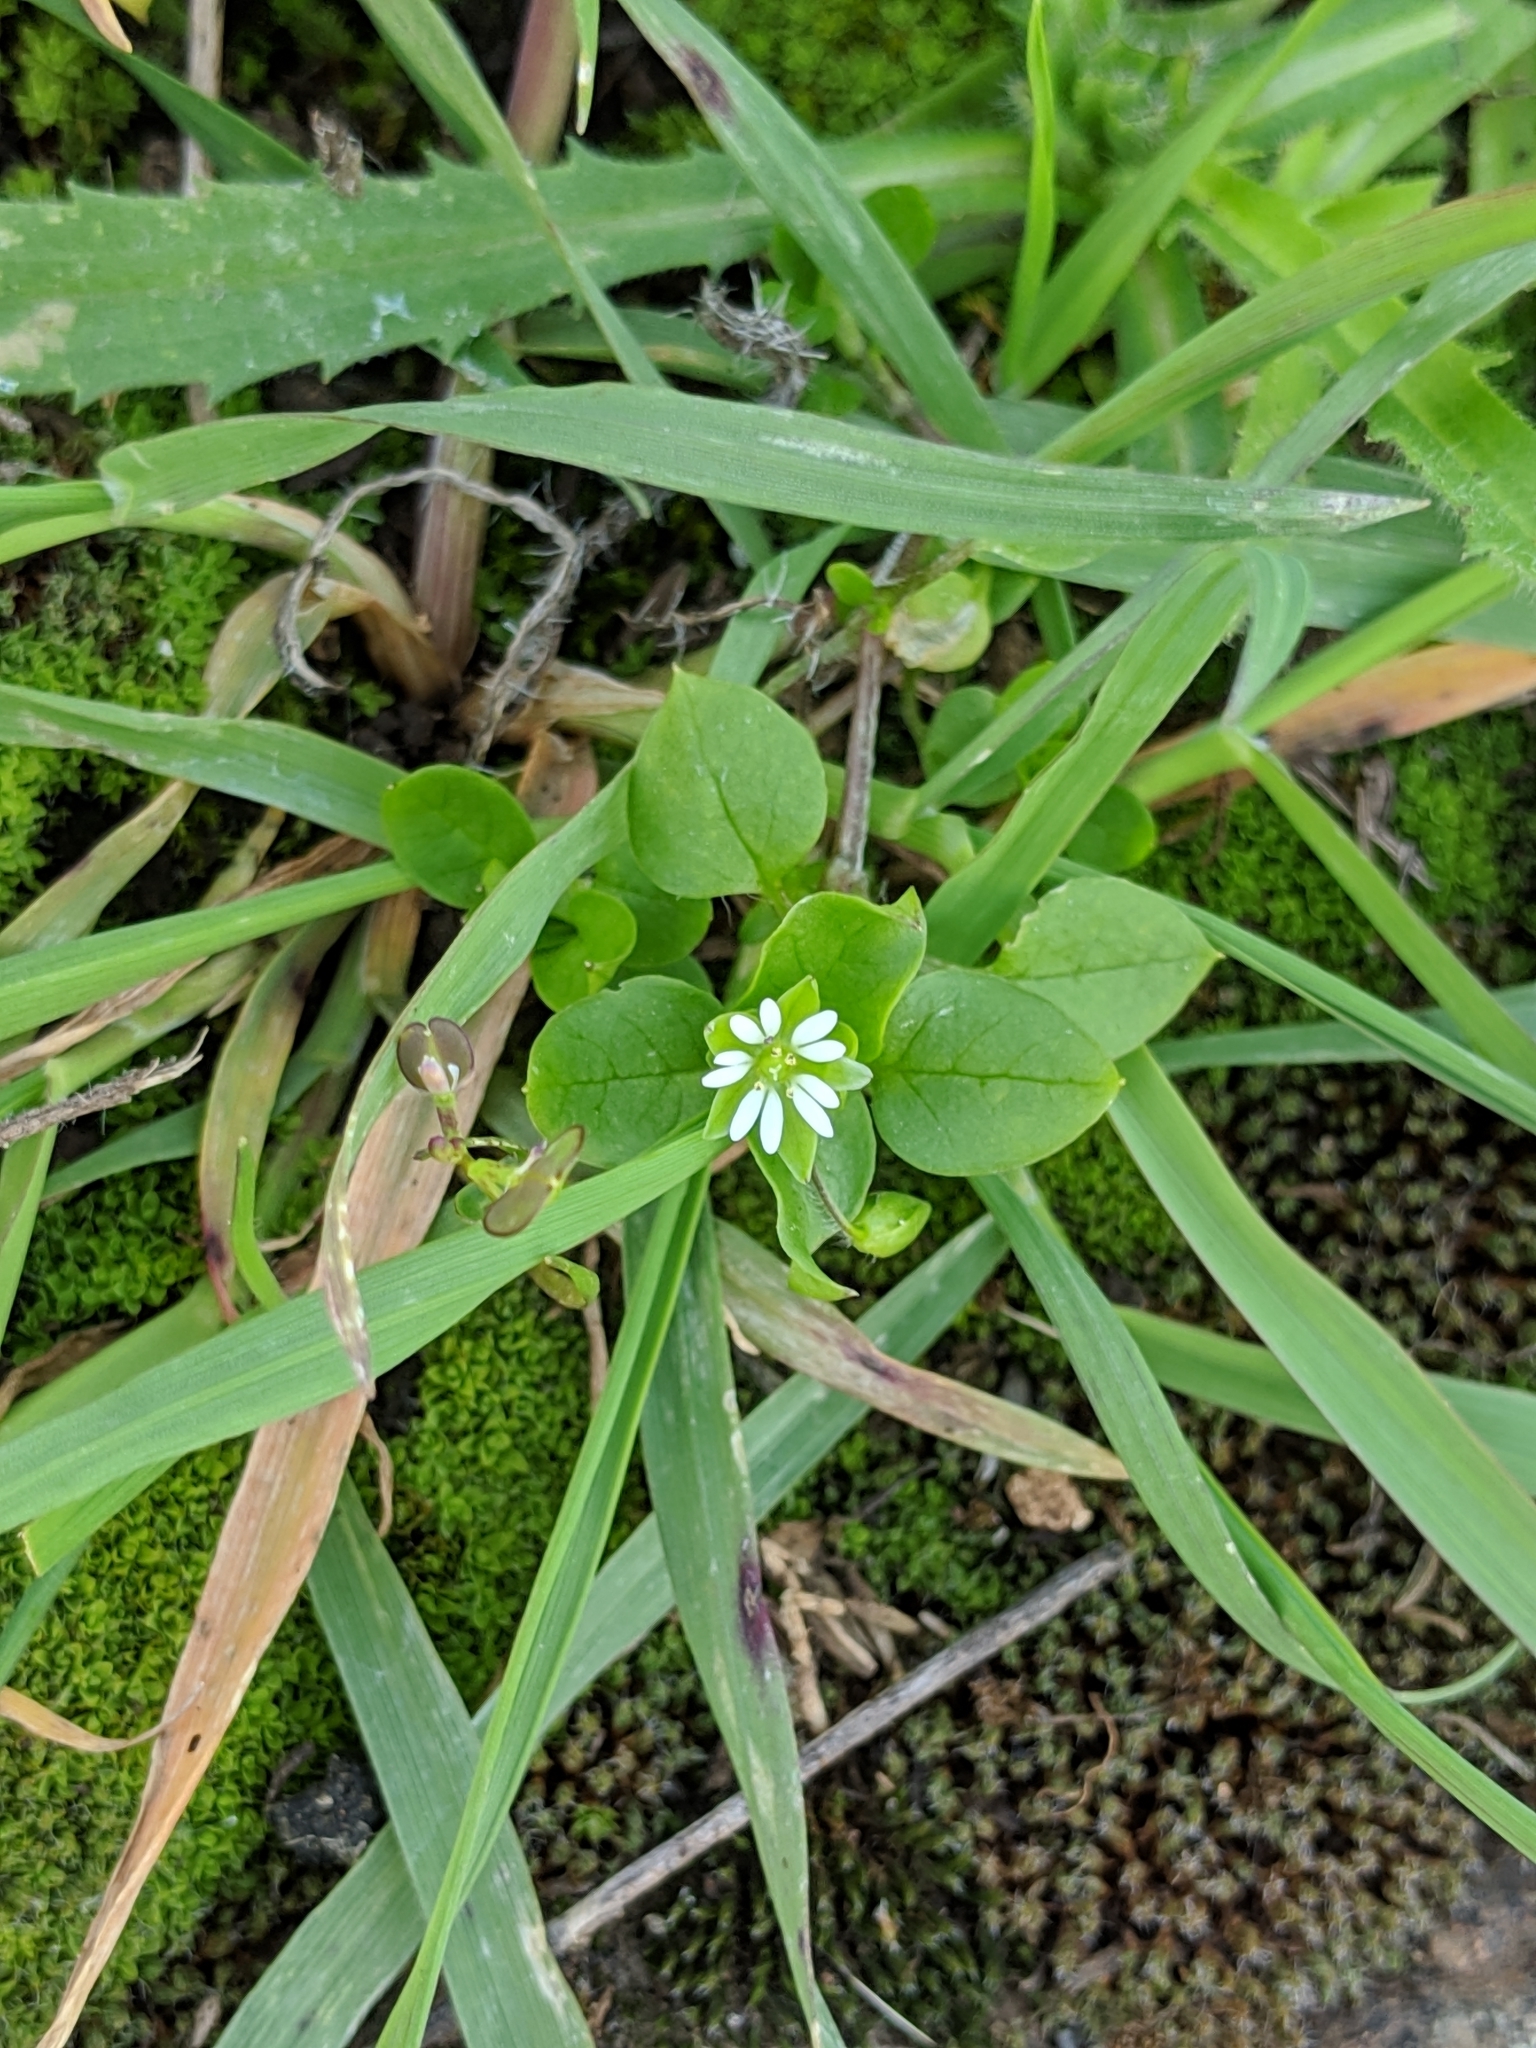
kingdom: Plantae
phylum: Tracheophyta
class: Magnoliopsida
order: Caryophyllales
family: Caryophyllaceae
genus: Stellaria
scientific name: Stellaria media
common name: Common chickweed
